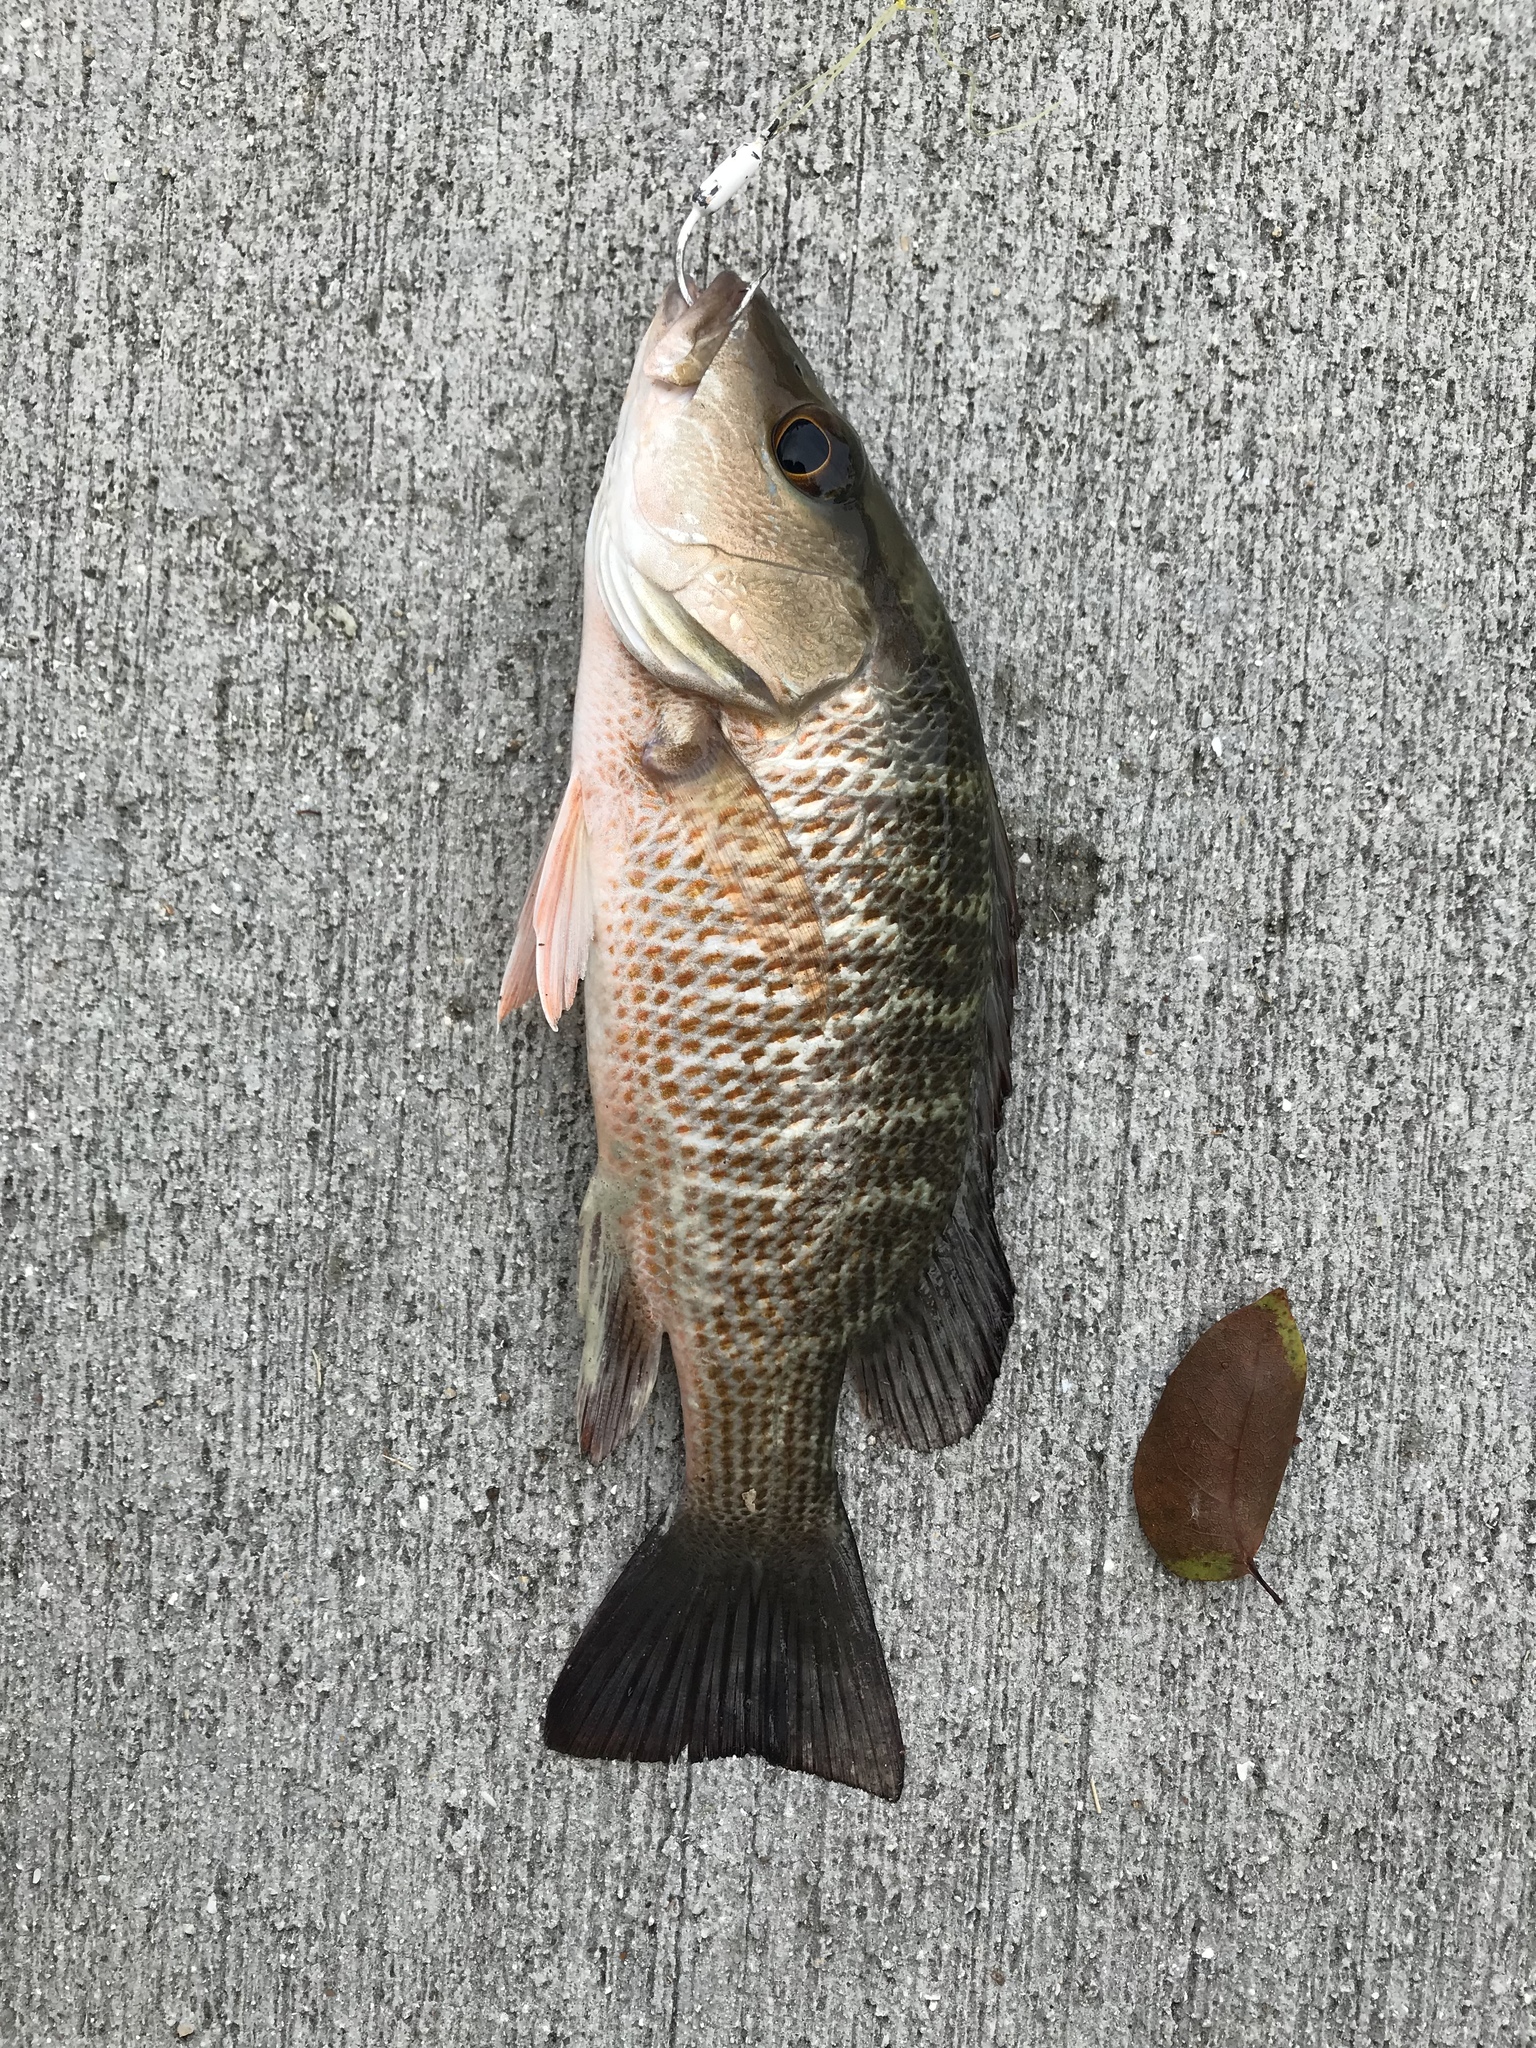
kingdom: Animalia
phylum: Chordata
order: Perciformes
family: Lutjanidae
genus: Lutjanus
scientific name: Lutjanus griseus
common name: Gray snapper
